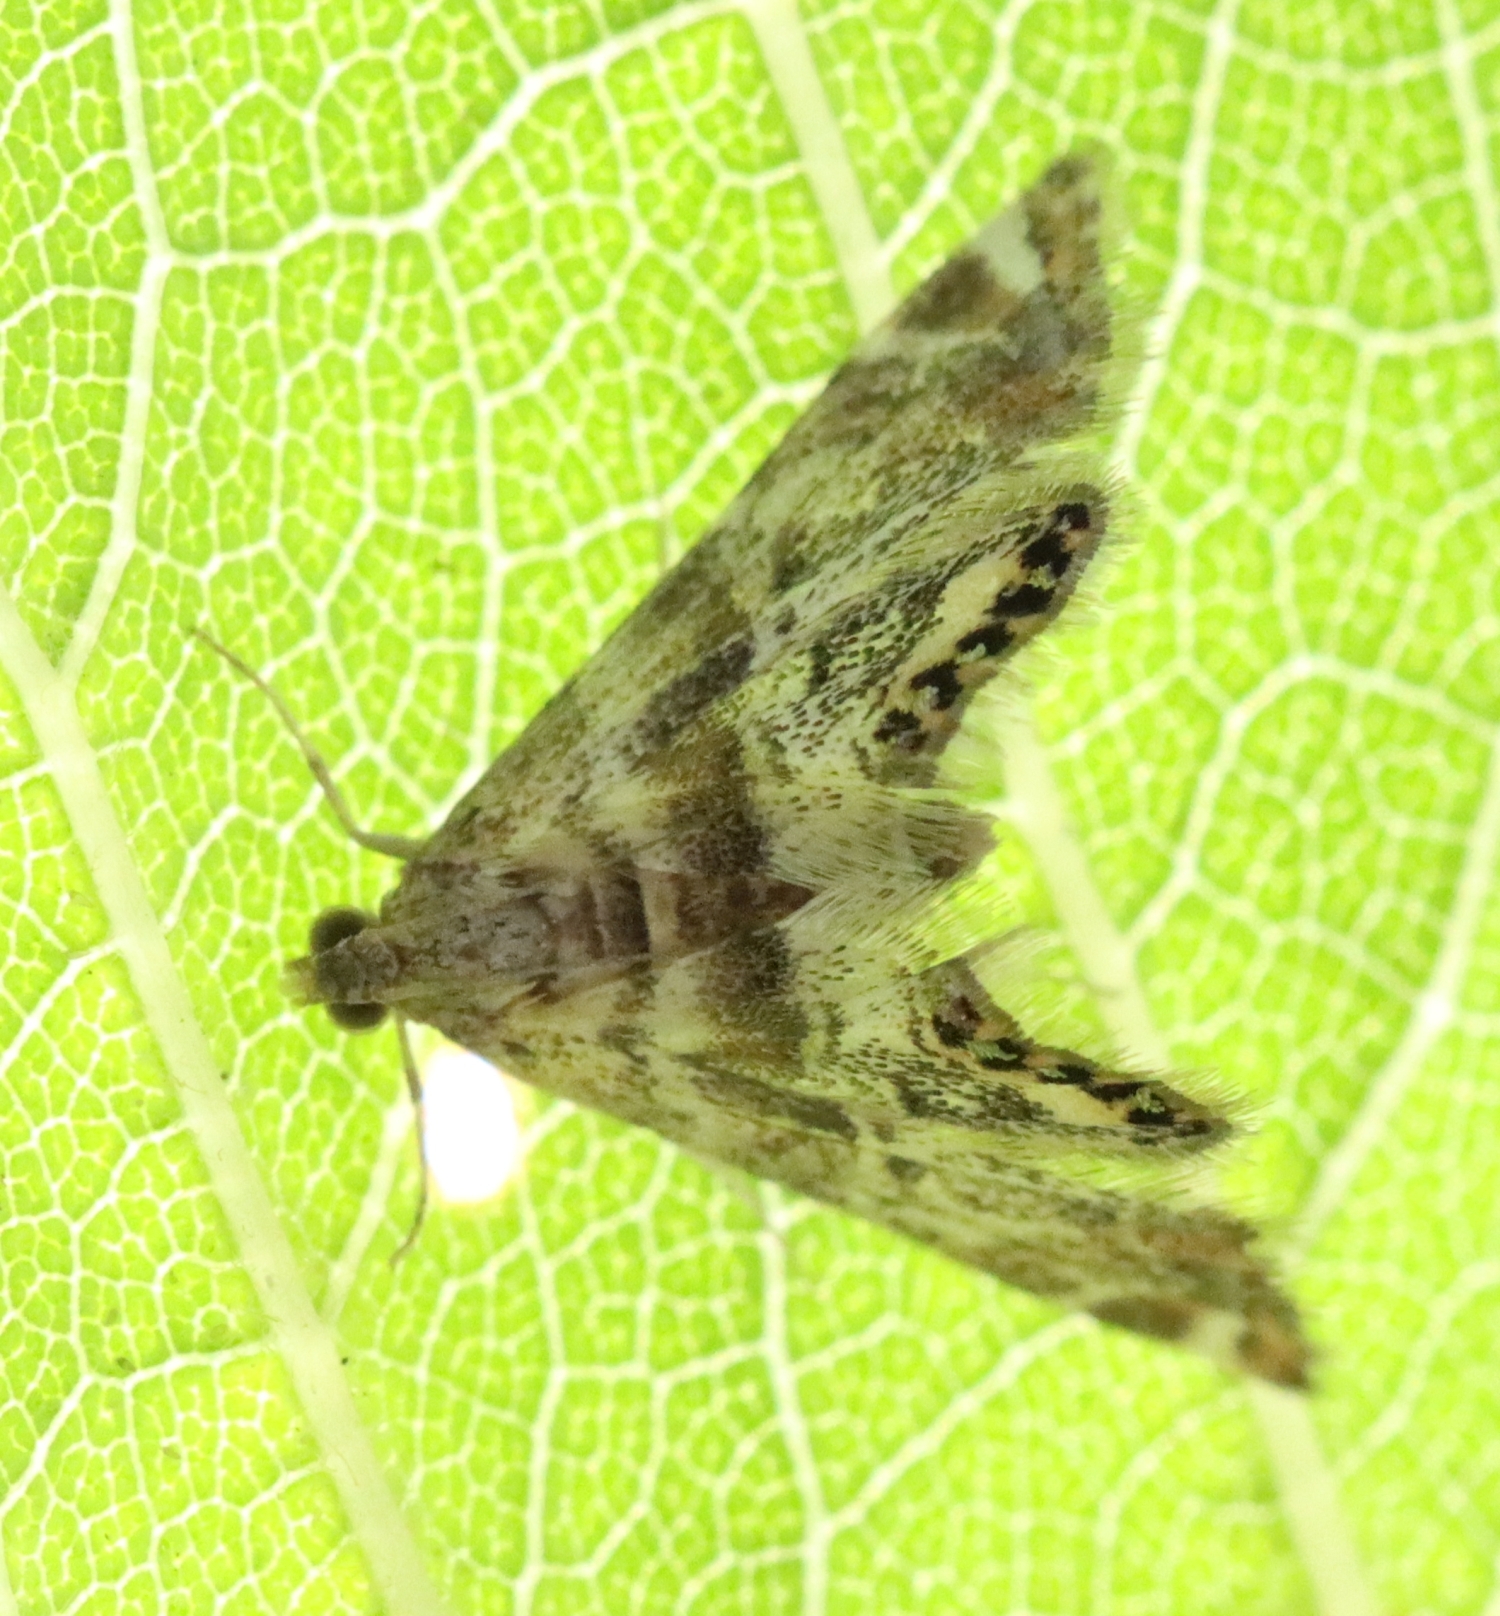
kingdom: Animalia
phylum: Arthropoda
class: Insecta
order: Lepidoptera
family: Crambidae
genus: Petrophila
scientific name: Petrophila fulicalis
